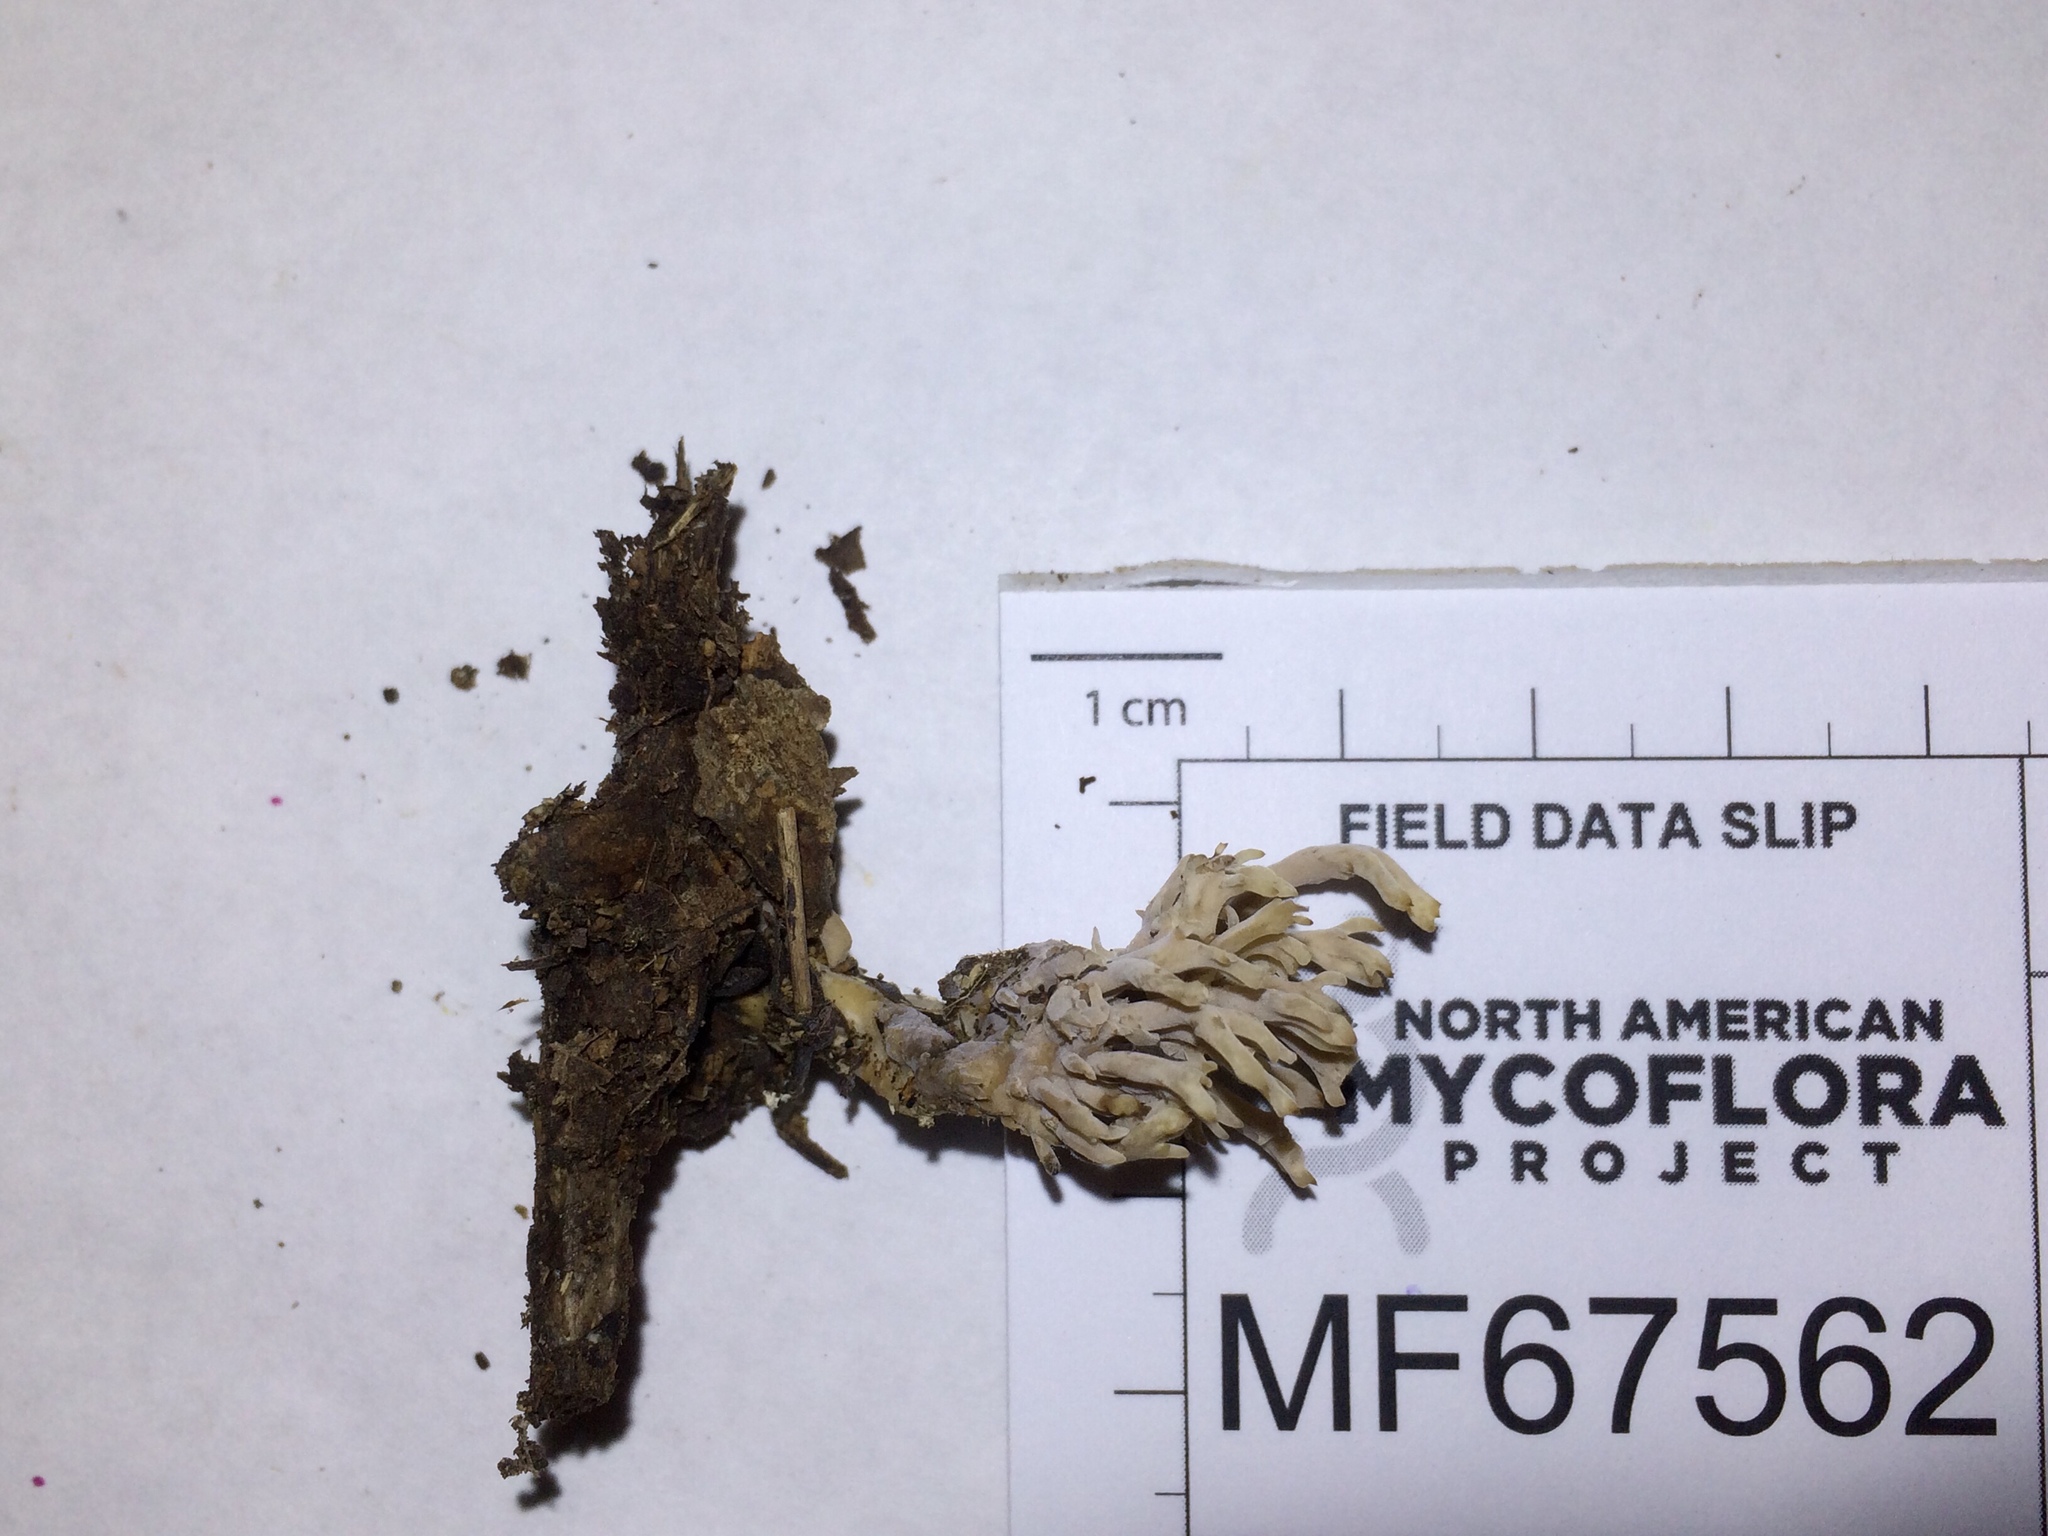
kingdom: Fungi
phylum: Basidiomycota
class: Agaricomycetes
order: Cantharellales
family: Hydnaceae
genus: Clavulina
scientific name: Clavulina coralloides
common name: Crested coral
